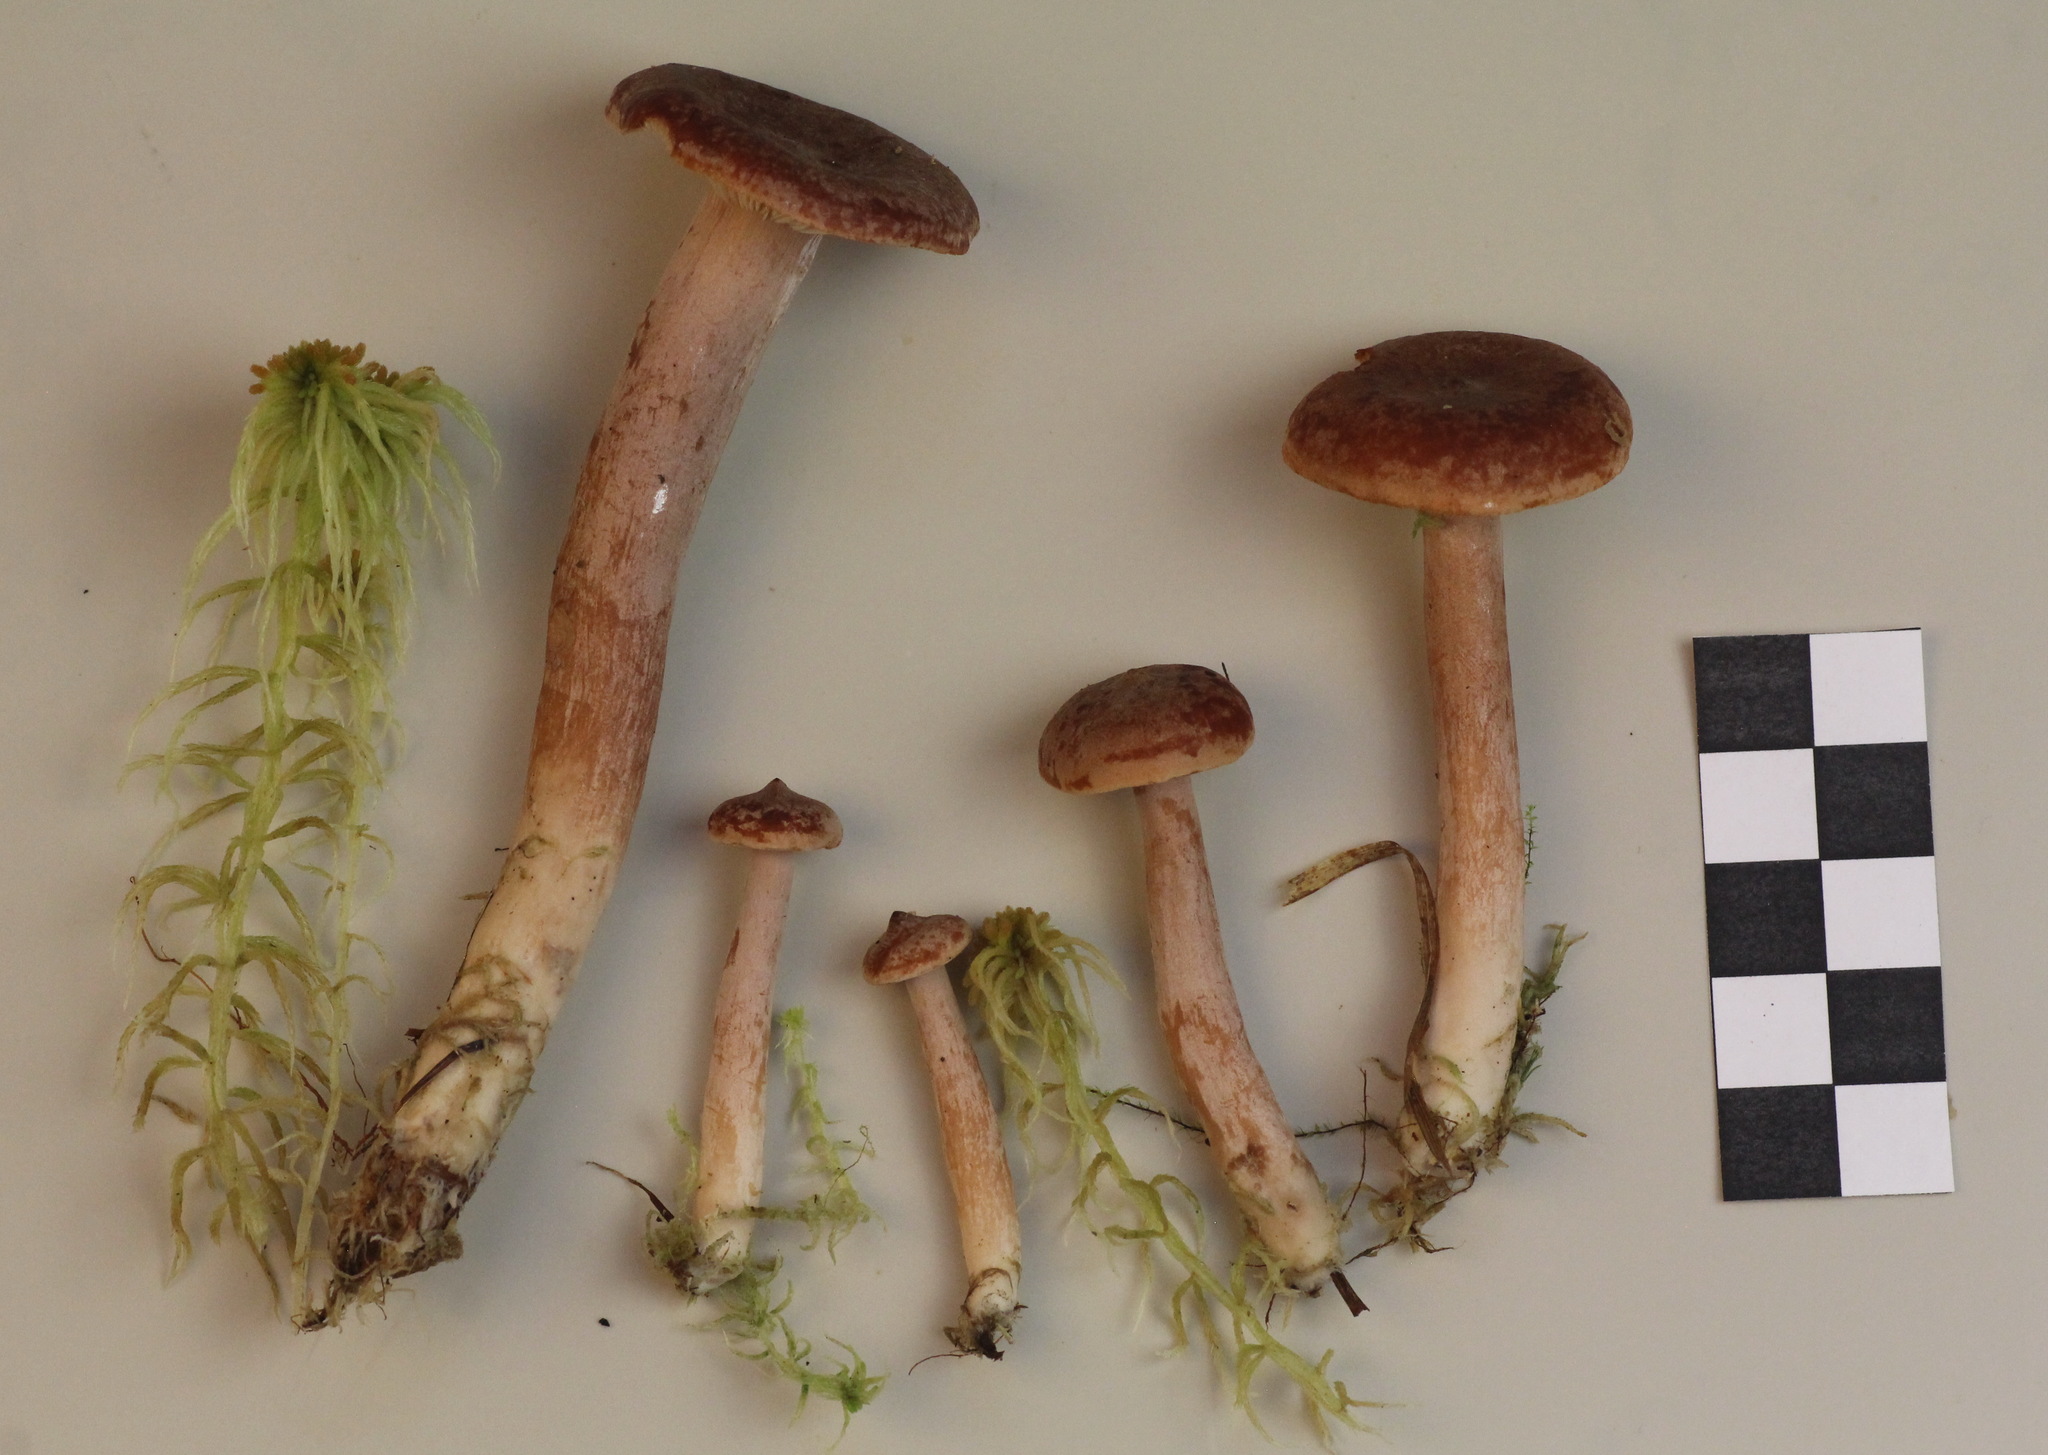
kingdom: Fungi
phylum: Basidiomycota
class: Agaricomycetes
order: Russulales
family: Russulaceae
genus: Lactarius
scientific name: Lactarius rufus
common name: Rufous milk-cap
